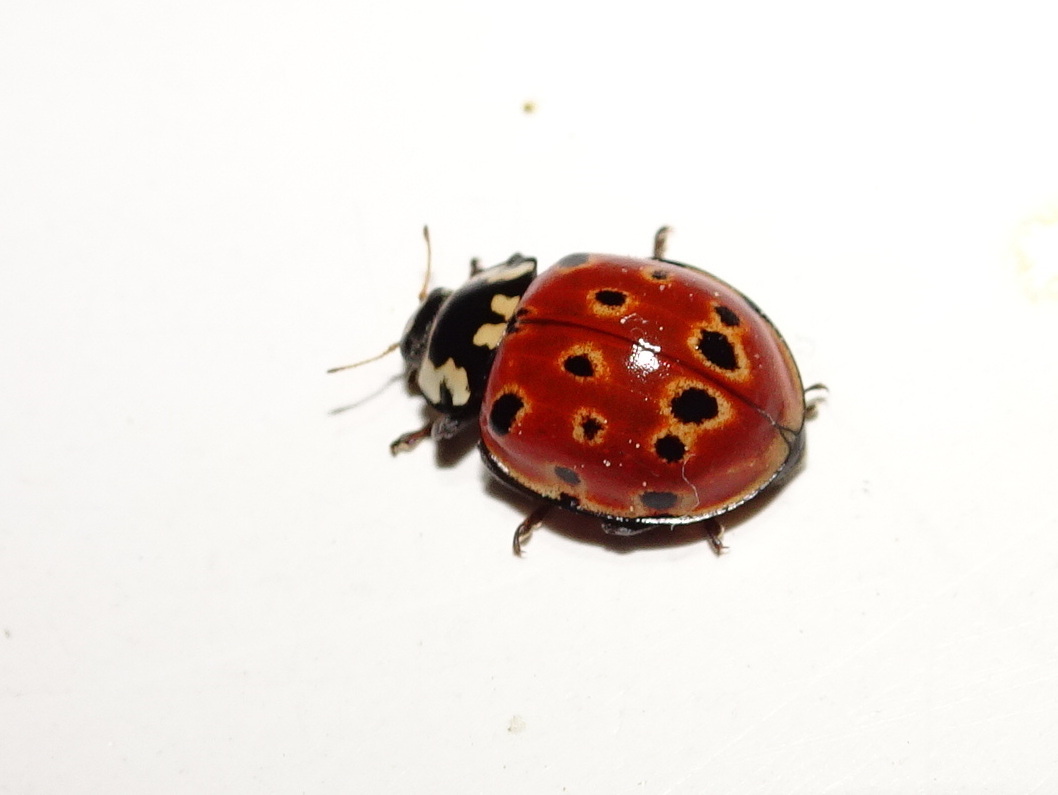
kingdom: Animalia
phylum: Arthropoda
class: Insecta
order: Coleoptera
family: Coccinellidae
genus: Anatis
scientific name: Anatis ocellata
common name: Eyed ladybird
